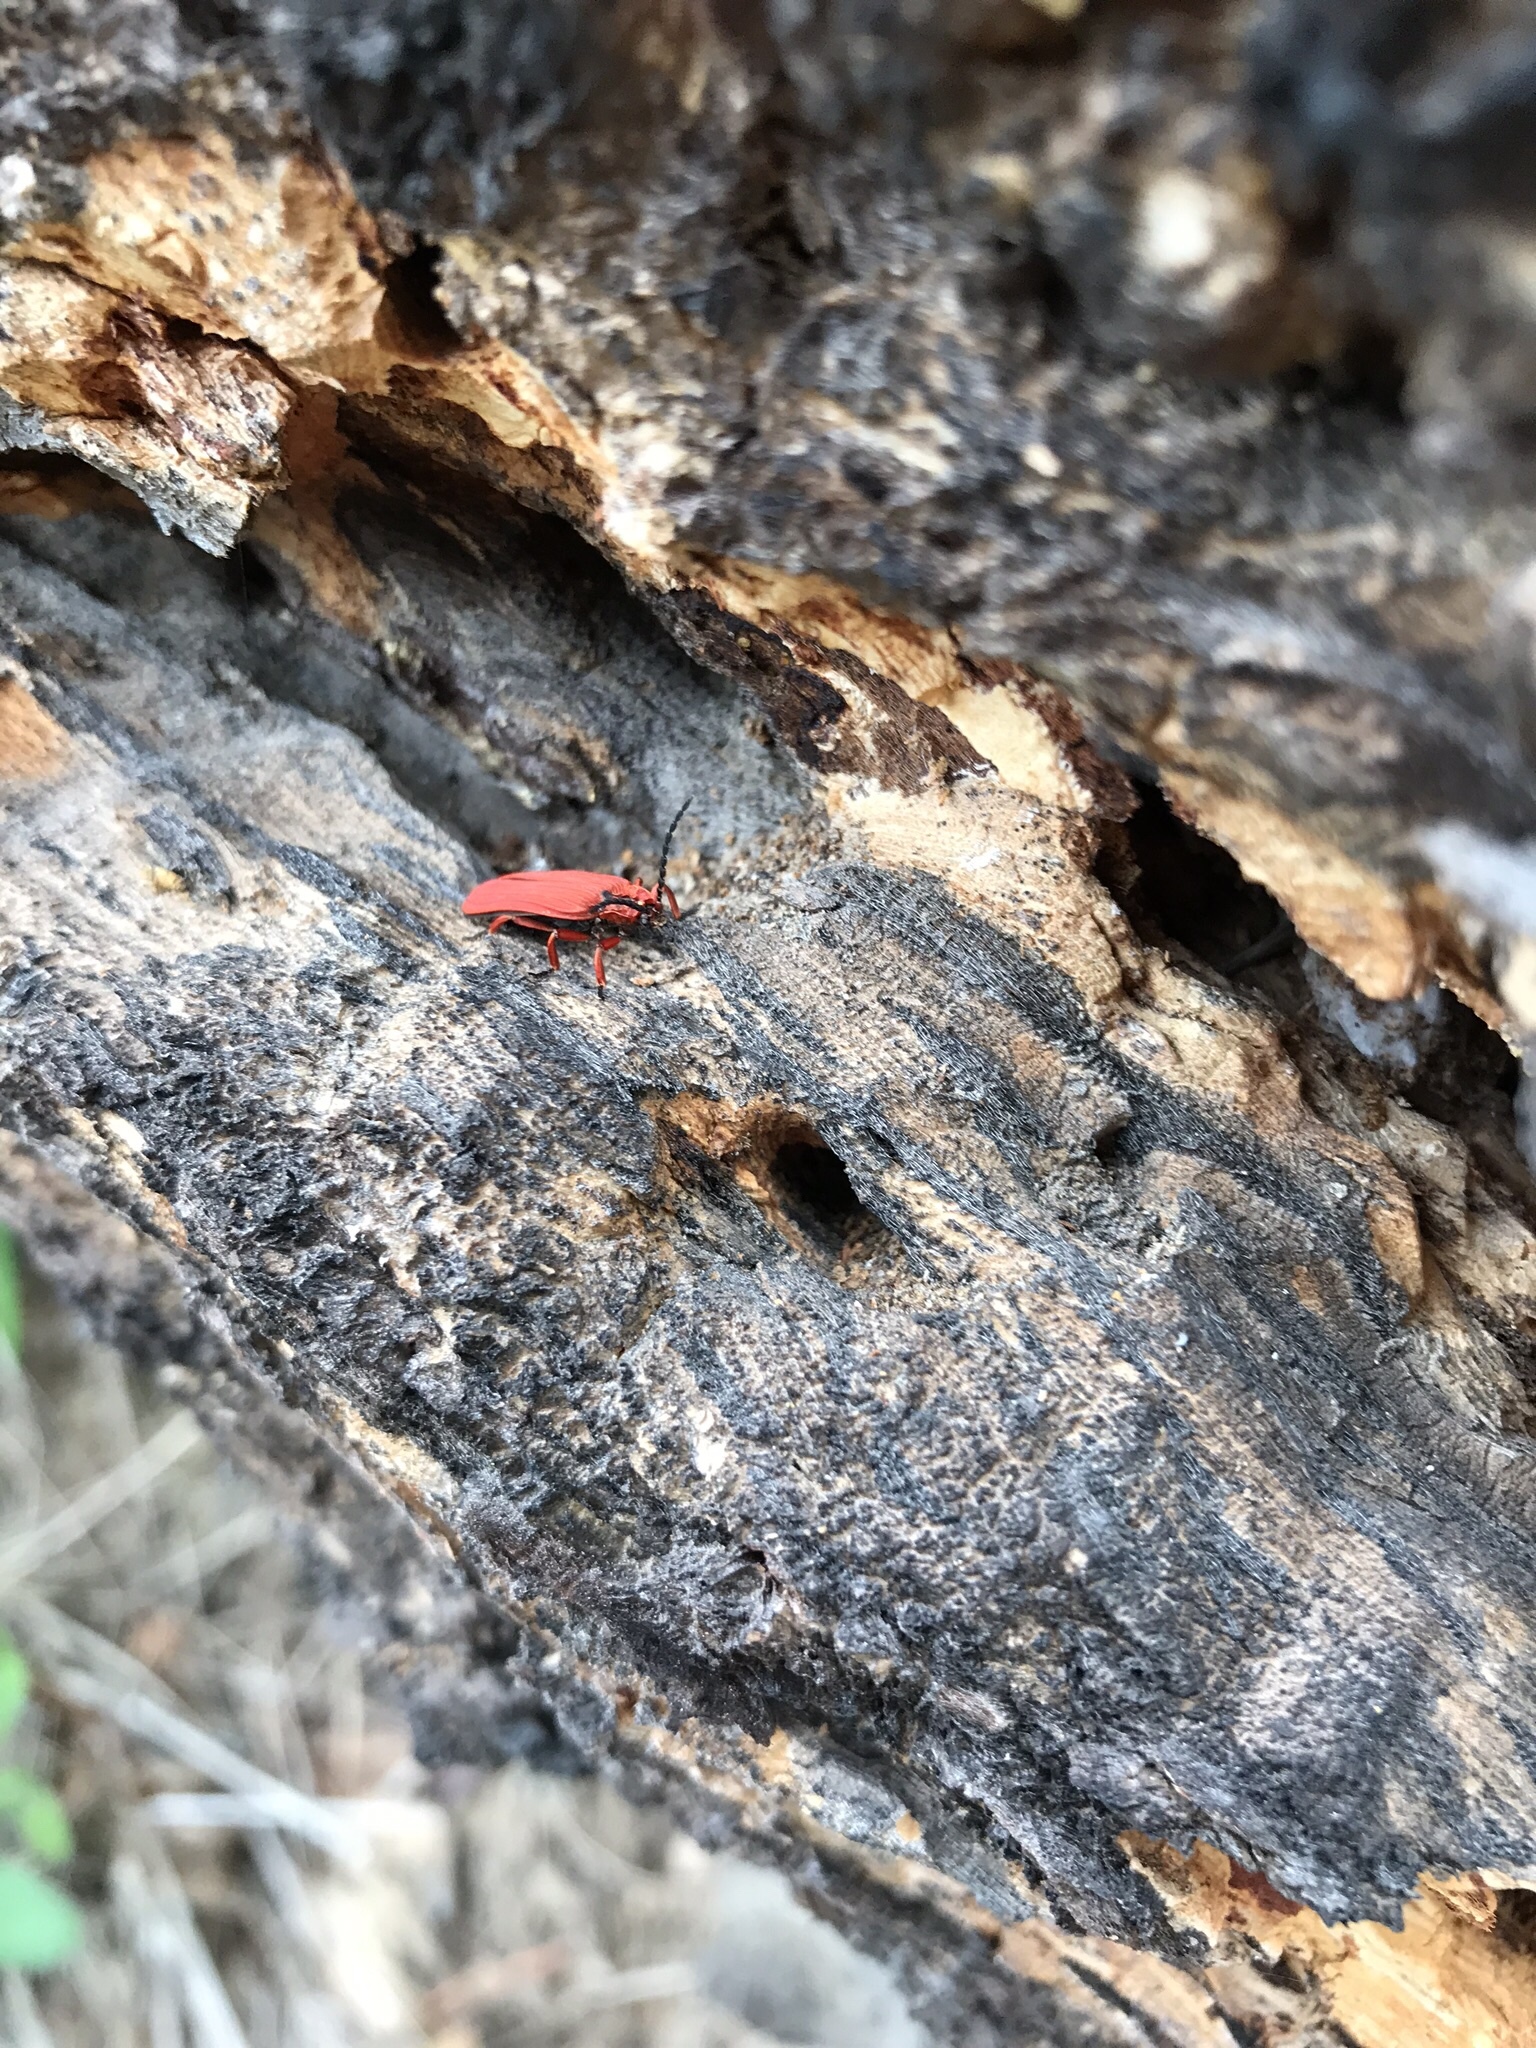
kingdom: Animalia
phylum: Arthropoda
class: Insecta
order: Coleoptera
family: Lycidae
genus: Dictyoptera
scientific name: Dictyoptera simplicipes
